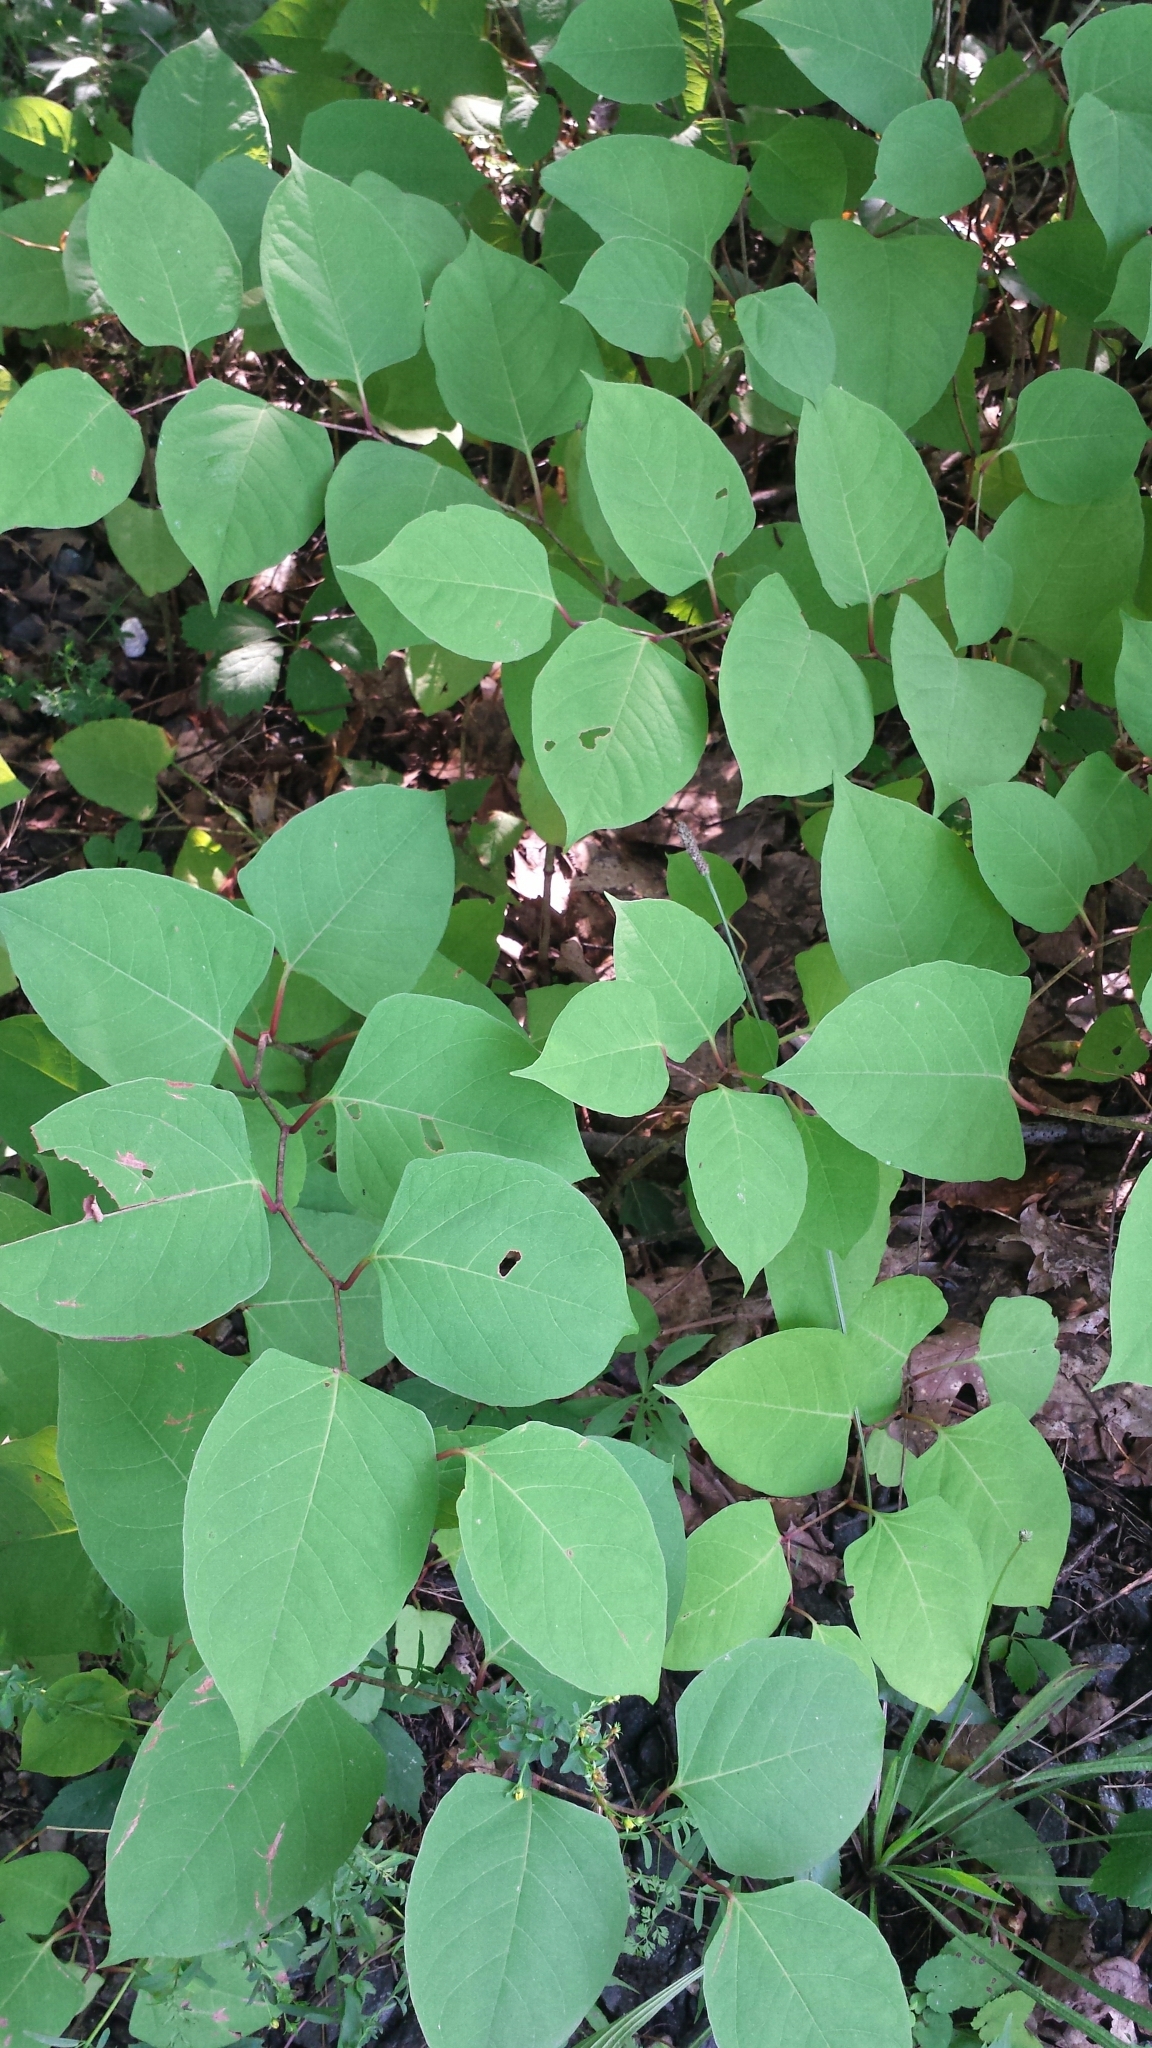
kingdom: Plantae
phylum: Tracheophyta
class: Magnoliopsida
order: Caryophyllales
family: Polygonaceae
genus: Reynoutria
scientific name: Reynoutria japonica
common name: Japanese knotweed
